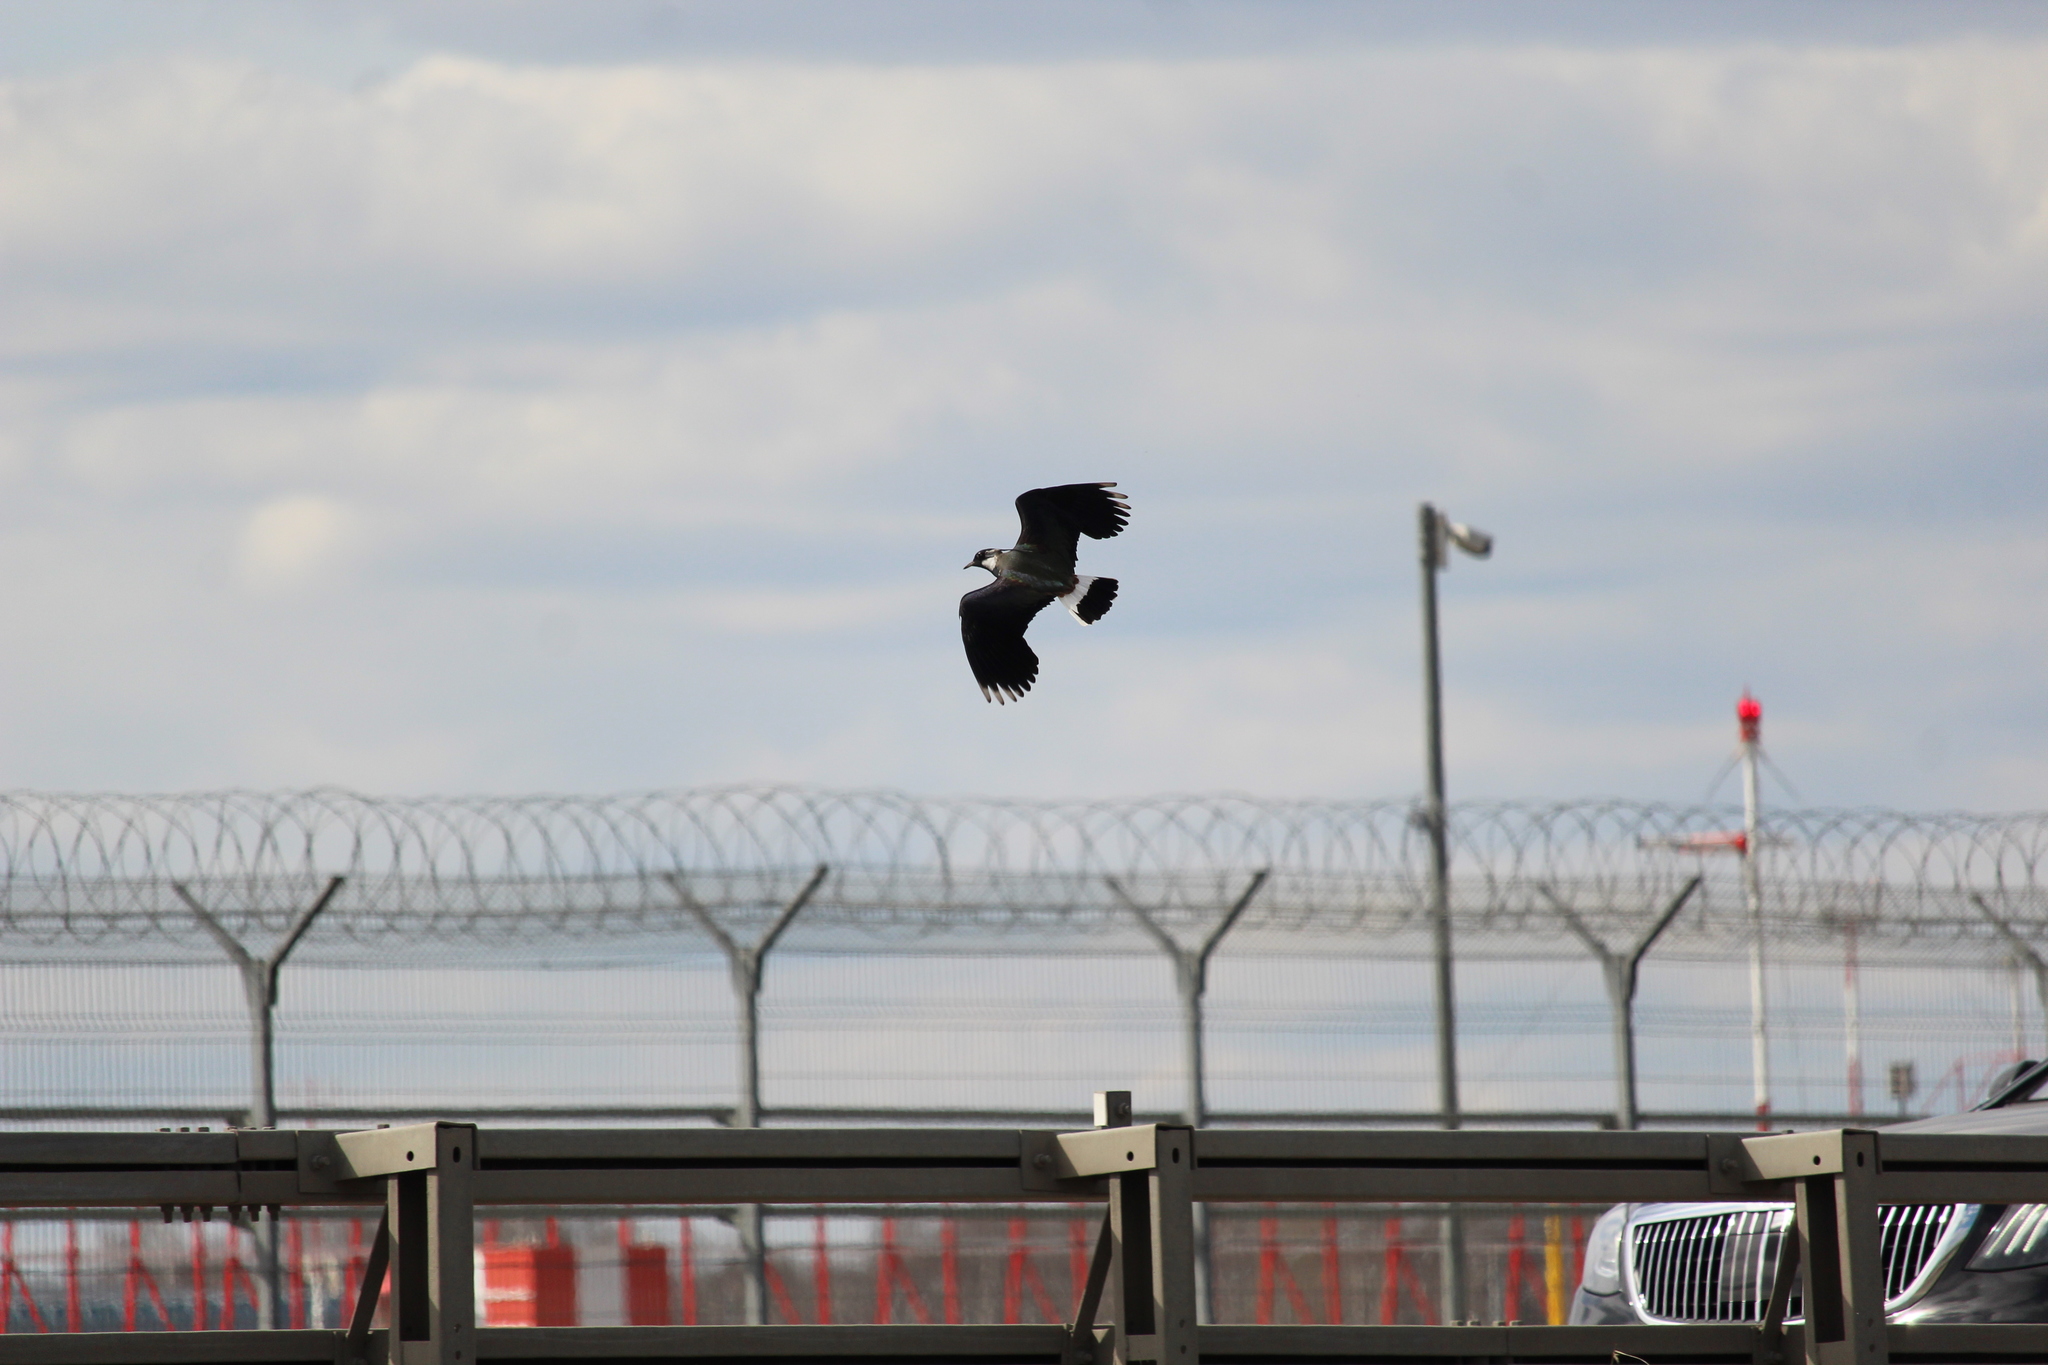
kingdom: Animalia
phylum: Chordata
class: Aves
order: Charadriiformes
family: Charadriidae
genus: Vanellus
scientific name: Vanellus vanellus
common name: Northern lapwing
